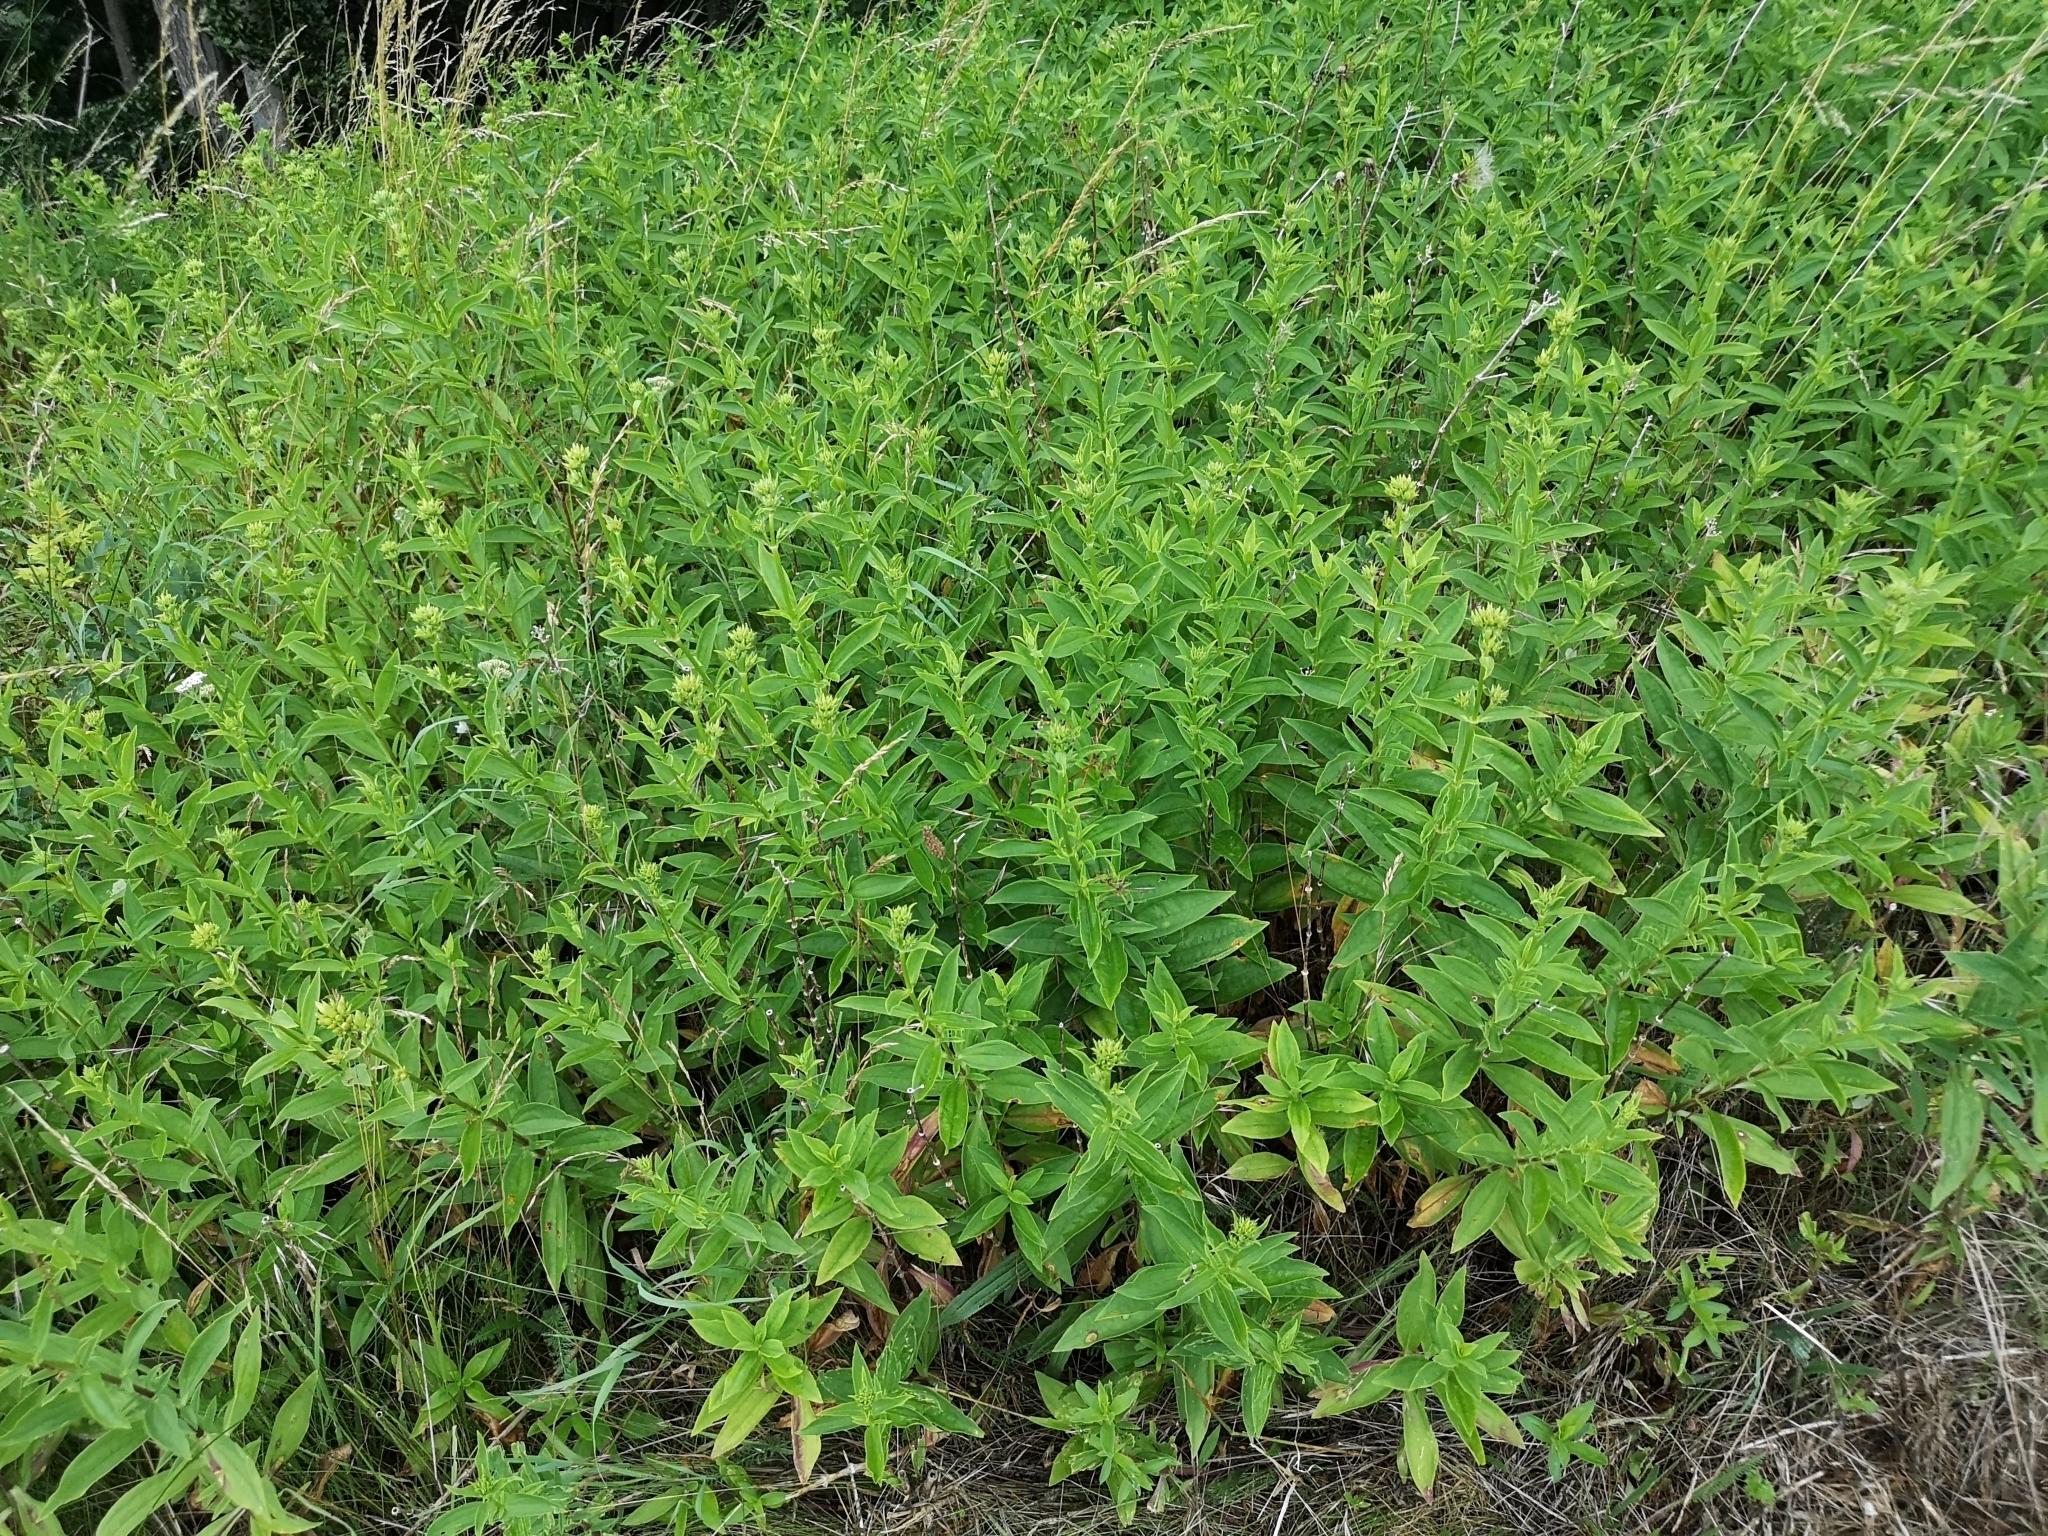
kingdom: Plantae
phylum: Tracheophyta
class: Magnoliopsida
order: Caryophyllales
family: Caryophyllaceae
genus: Saponaria
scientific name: Saponaria officinalis
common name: Soapwort
